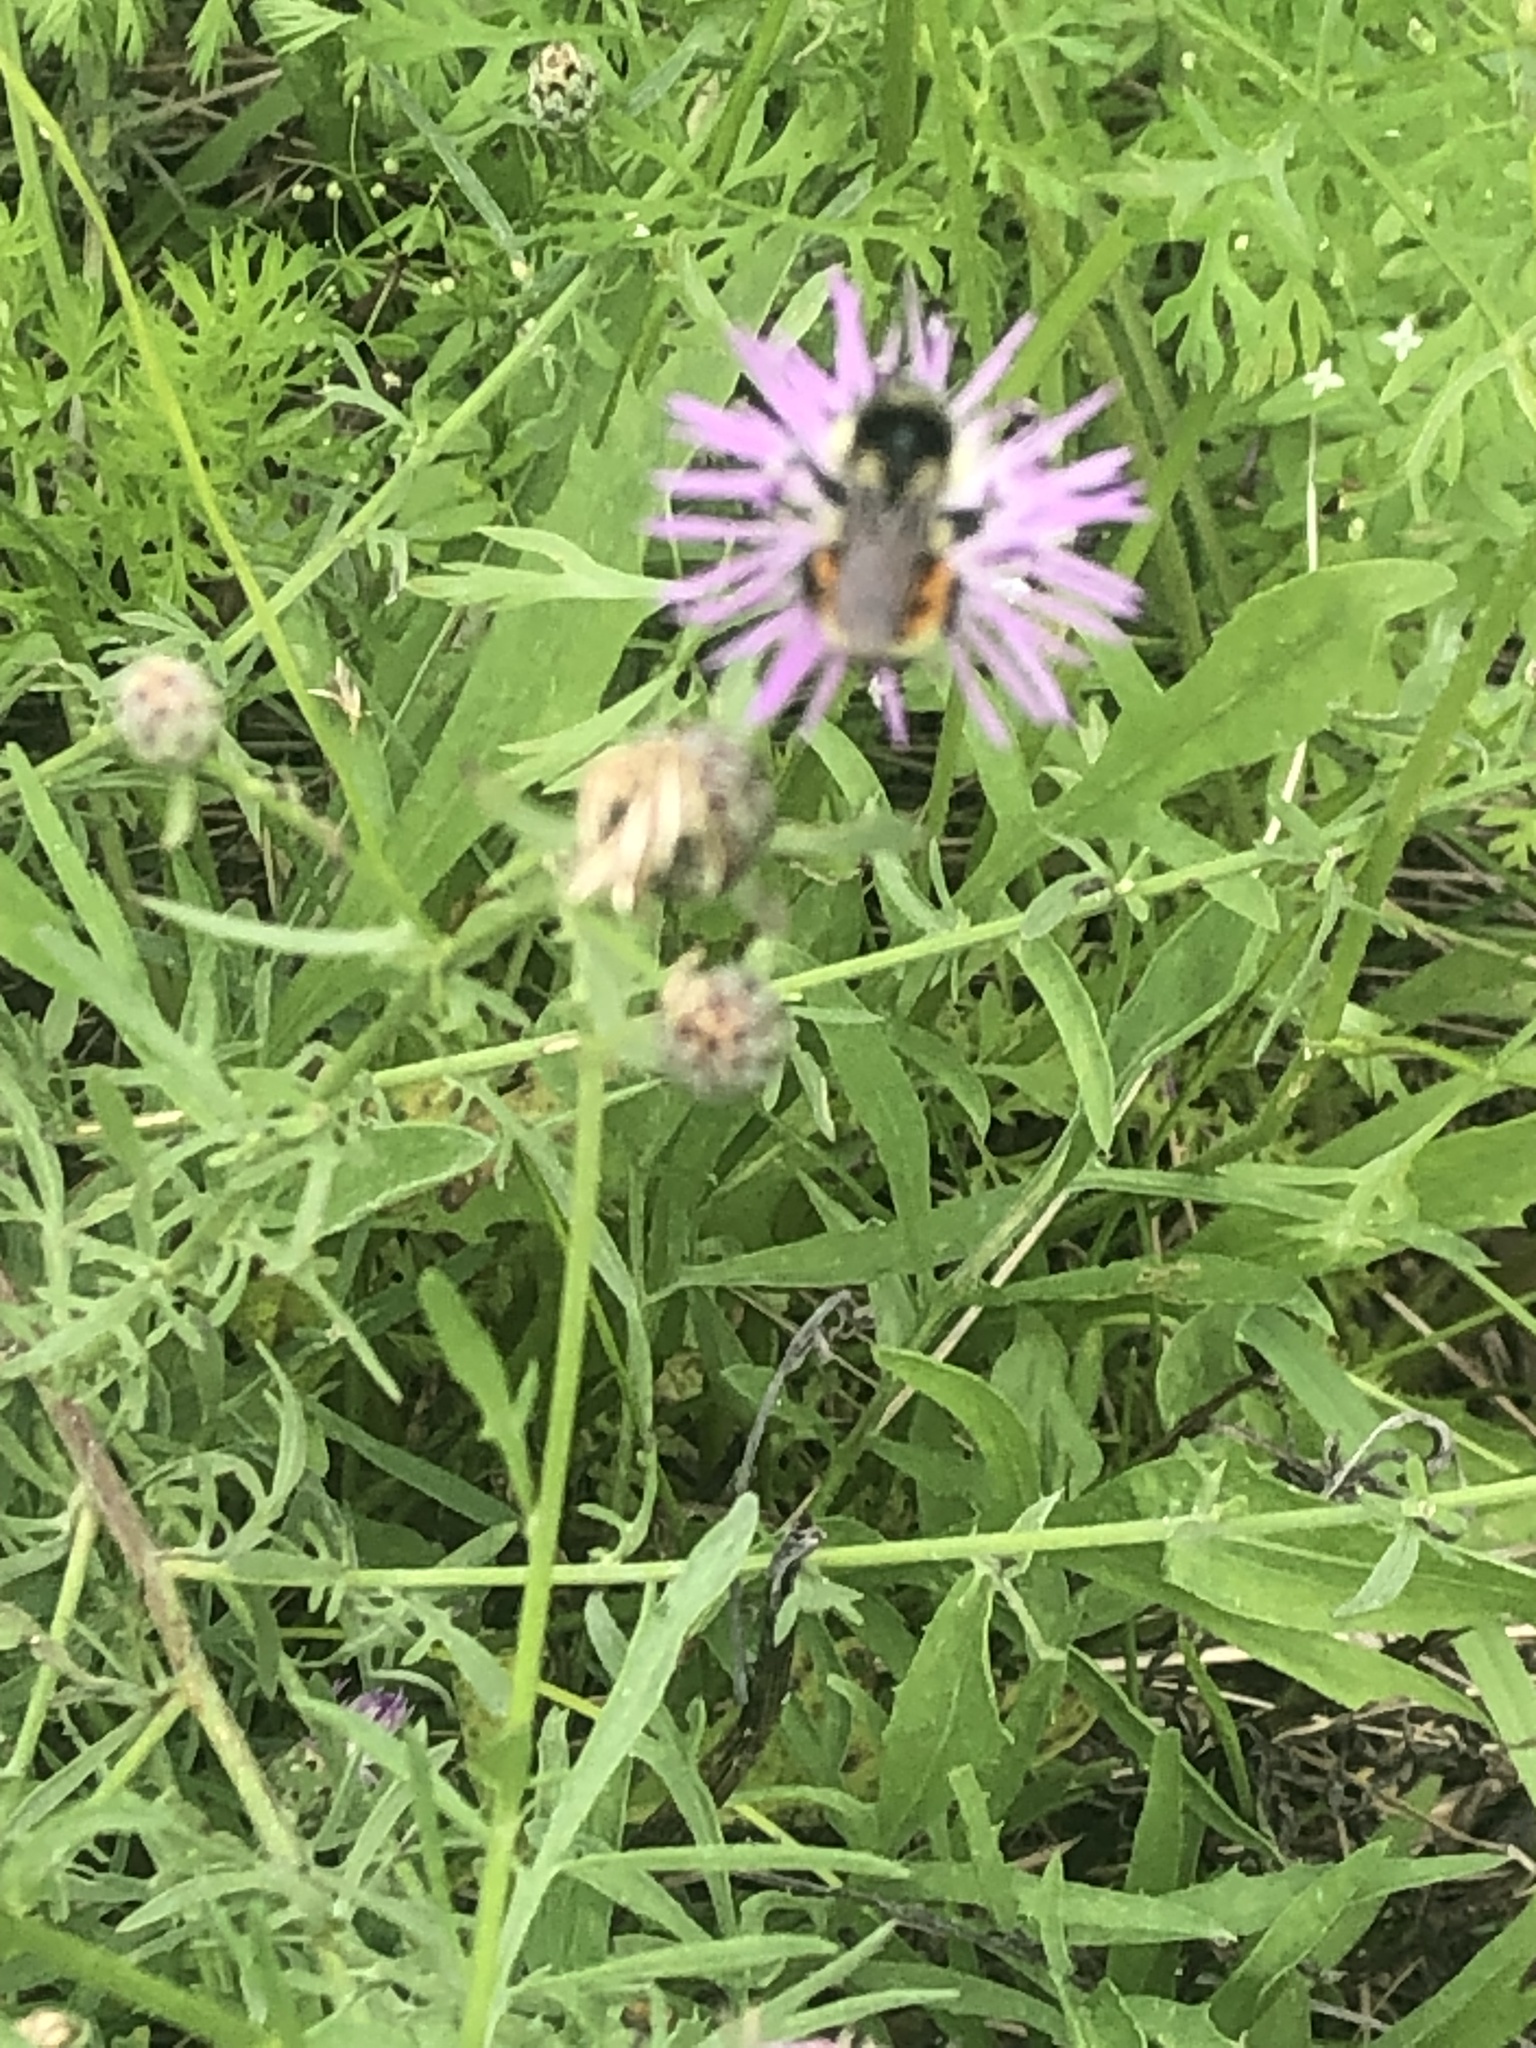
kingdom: Animalia
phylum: Arthropoda
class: Insecta
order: Hymenoptera
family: Apidae
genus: Bombus
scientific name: Bombus ternarius
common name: Tri-colored bumble bee
